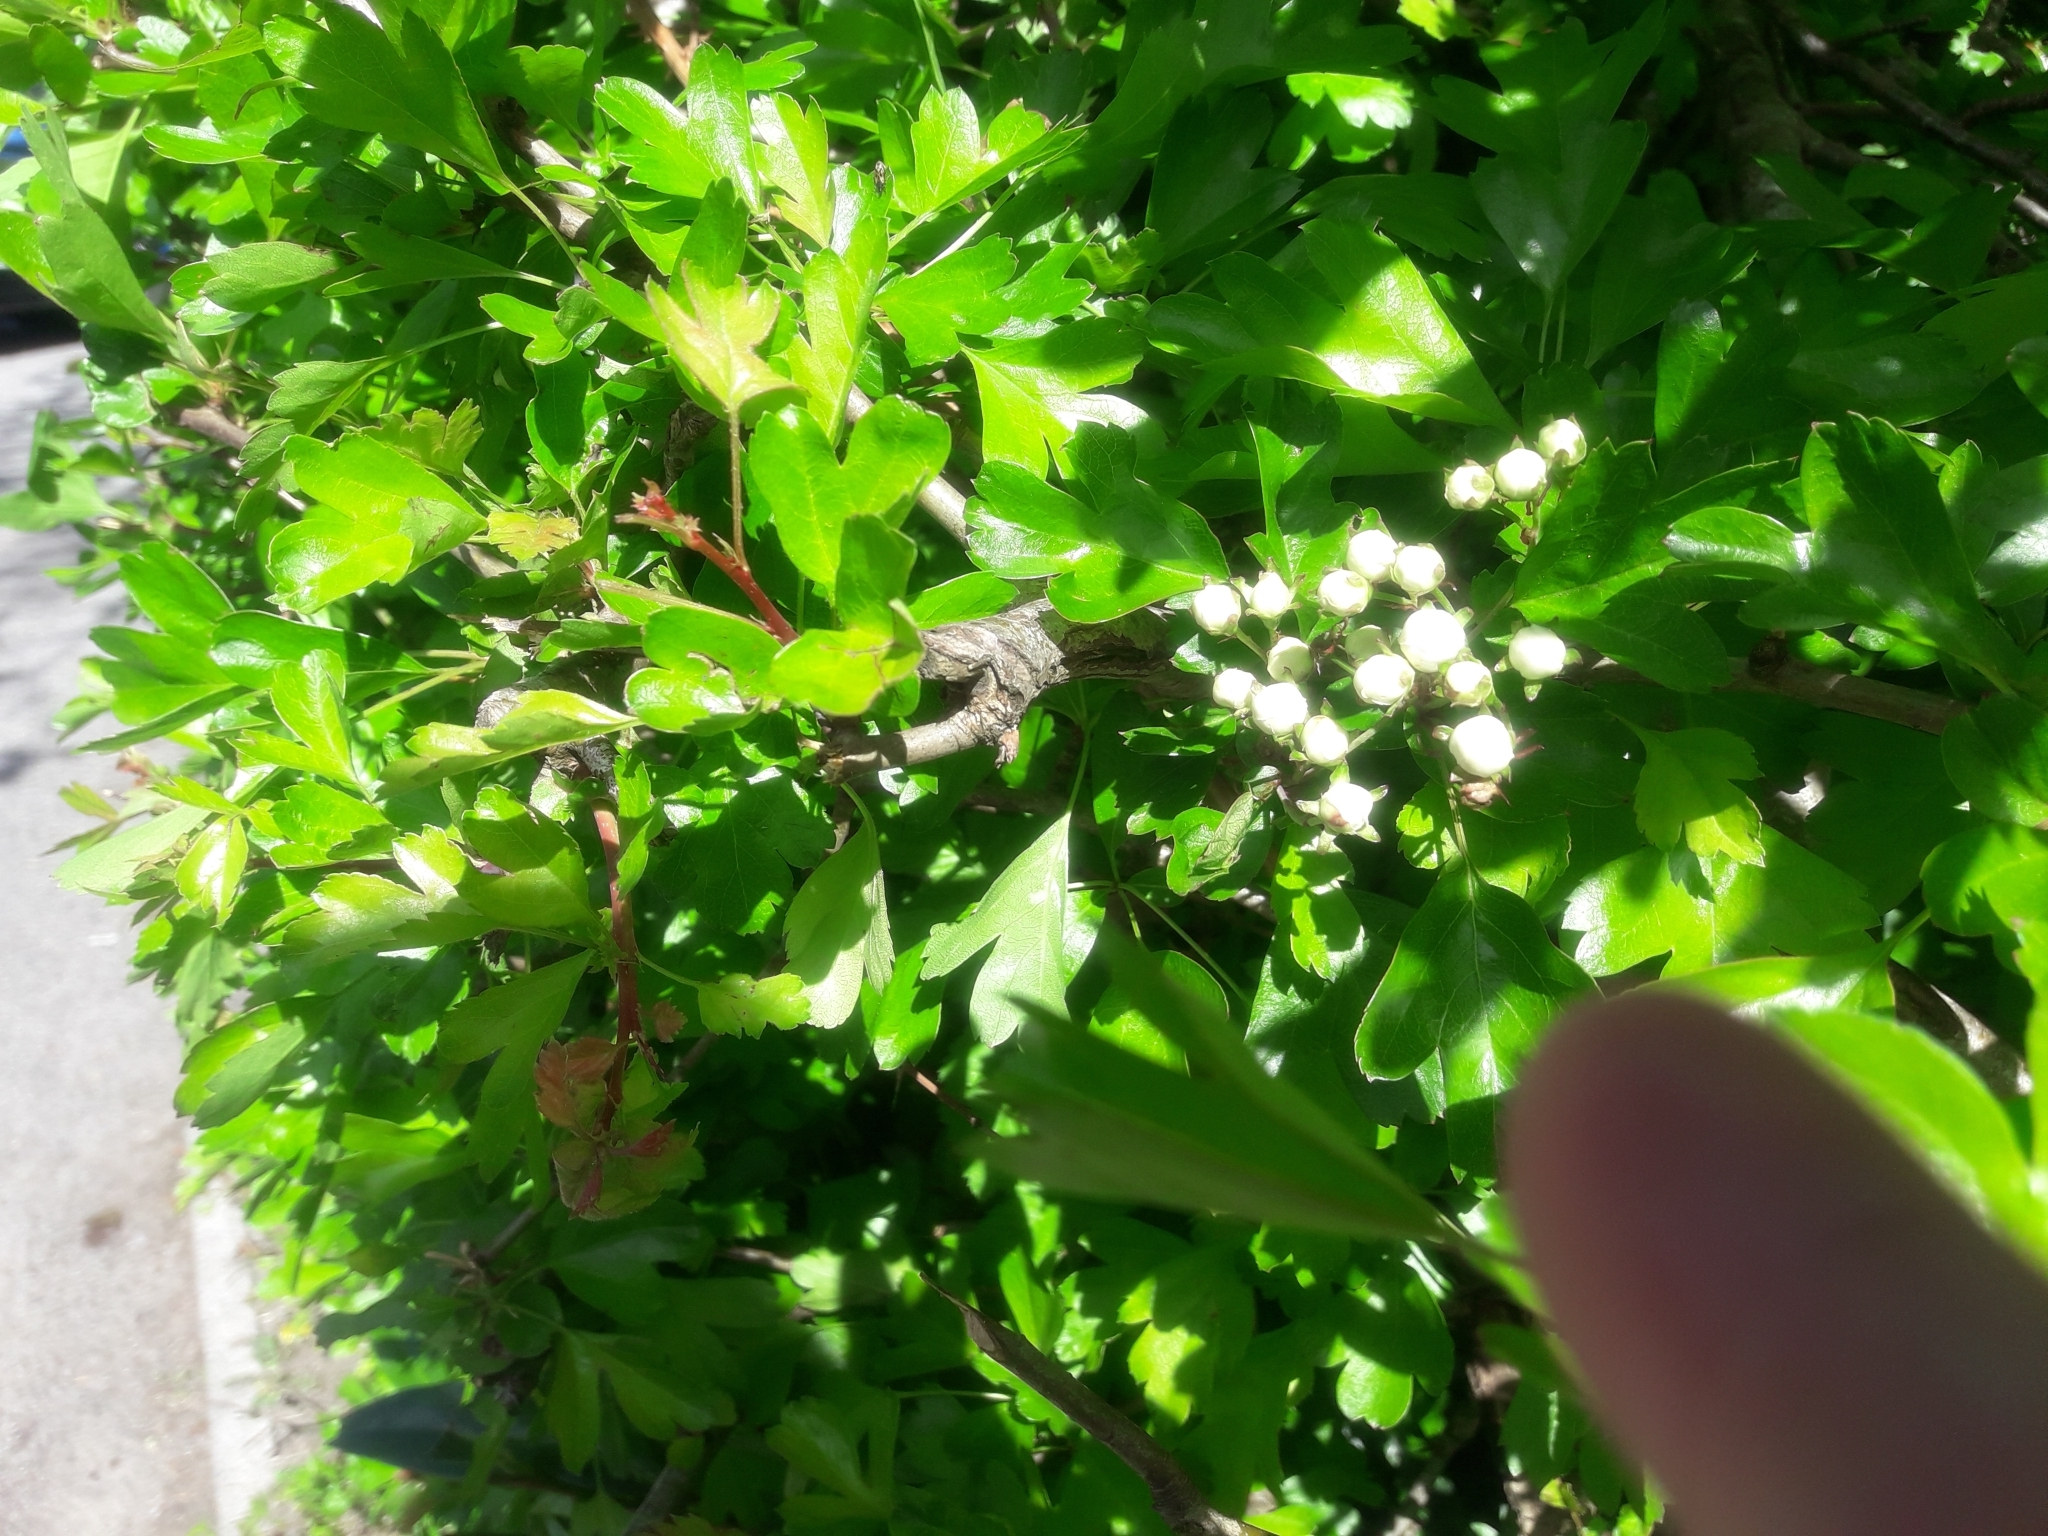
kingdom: Plantae
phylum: Tracheophyta
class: Magnoliopsida
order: Rosales
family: Rosaceae
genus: Crataegus
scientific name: Crataegus monogyna
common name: Hawthorn
